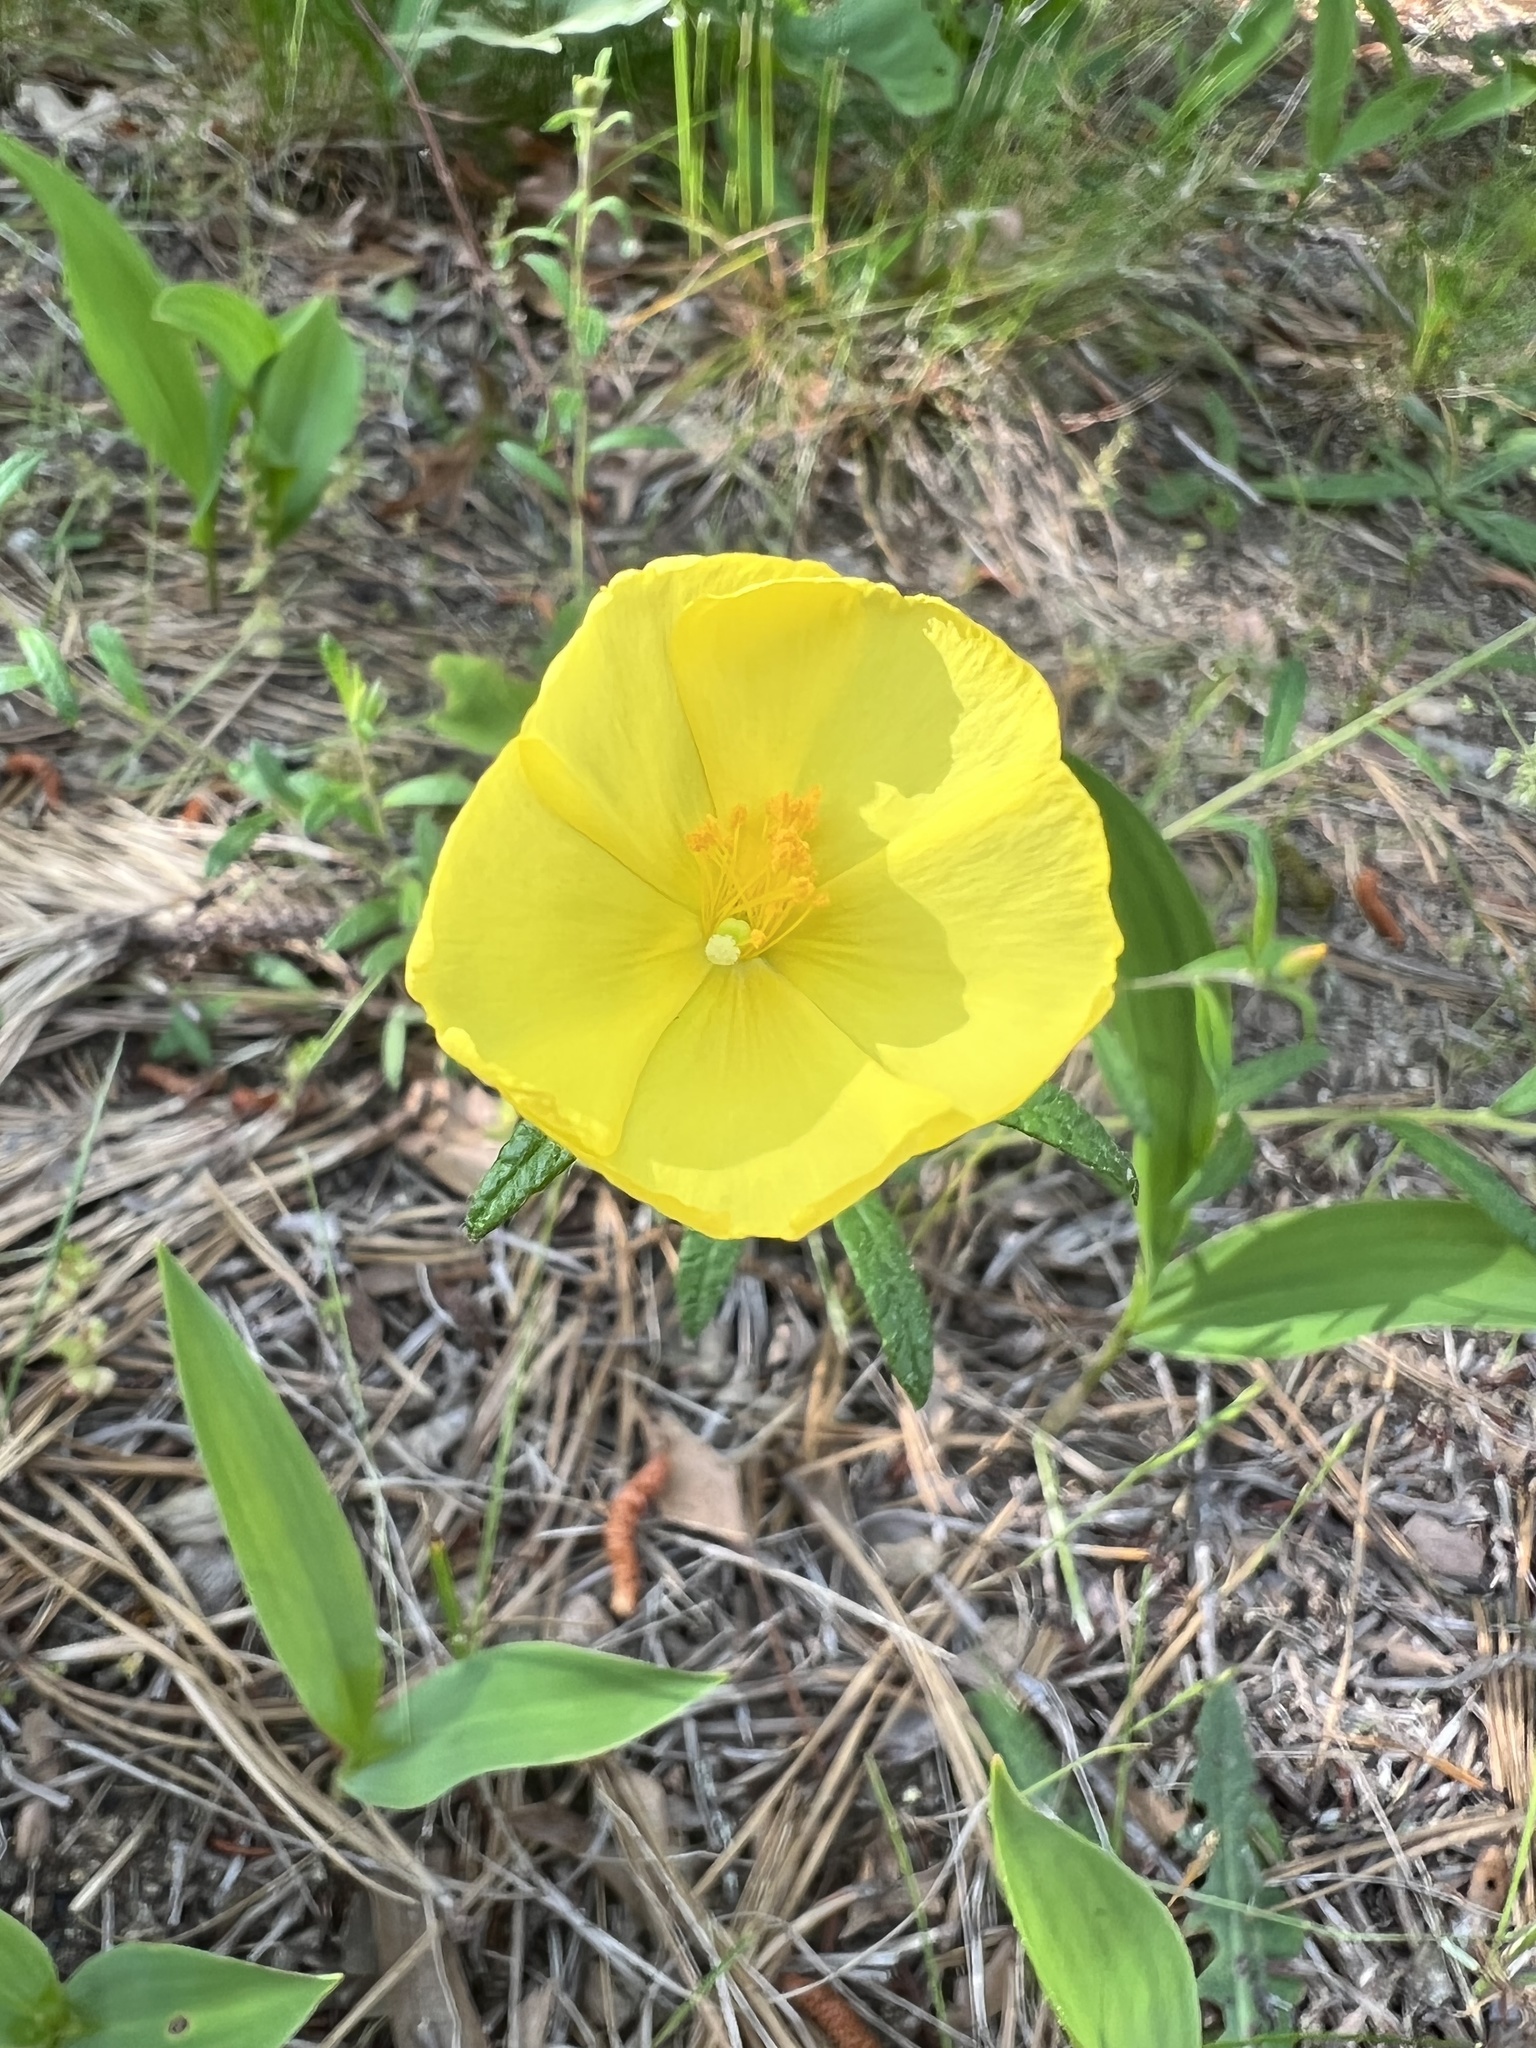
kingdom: Plantae
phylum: Tracheophyta
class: Magnoliopsida
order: Malvales
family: Cistaceae
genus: Crocanthemum
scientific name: Crocanthemum canadense
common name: Canada frostweed
